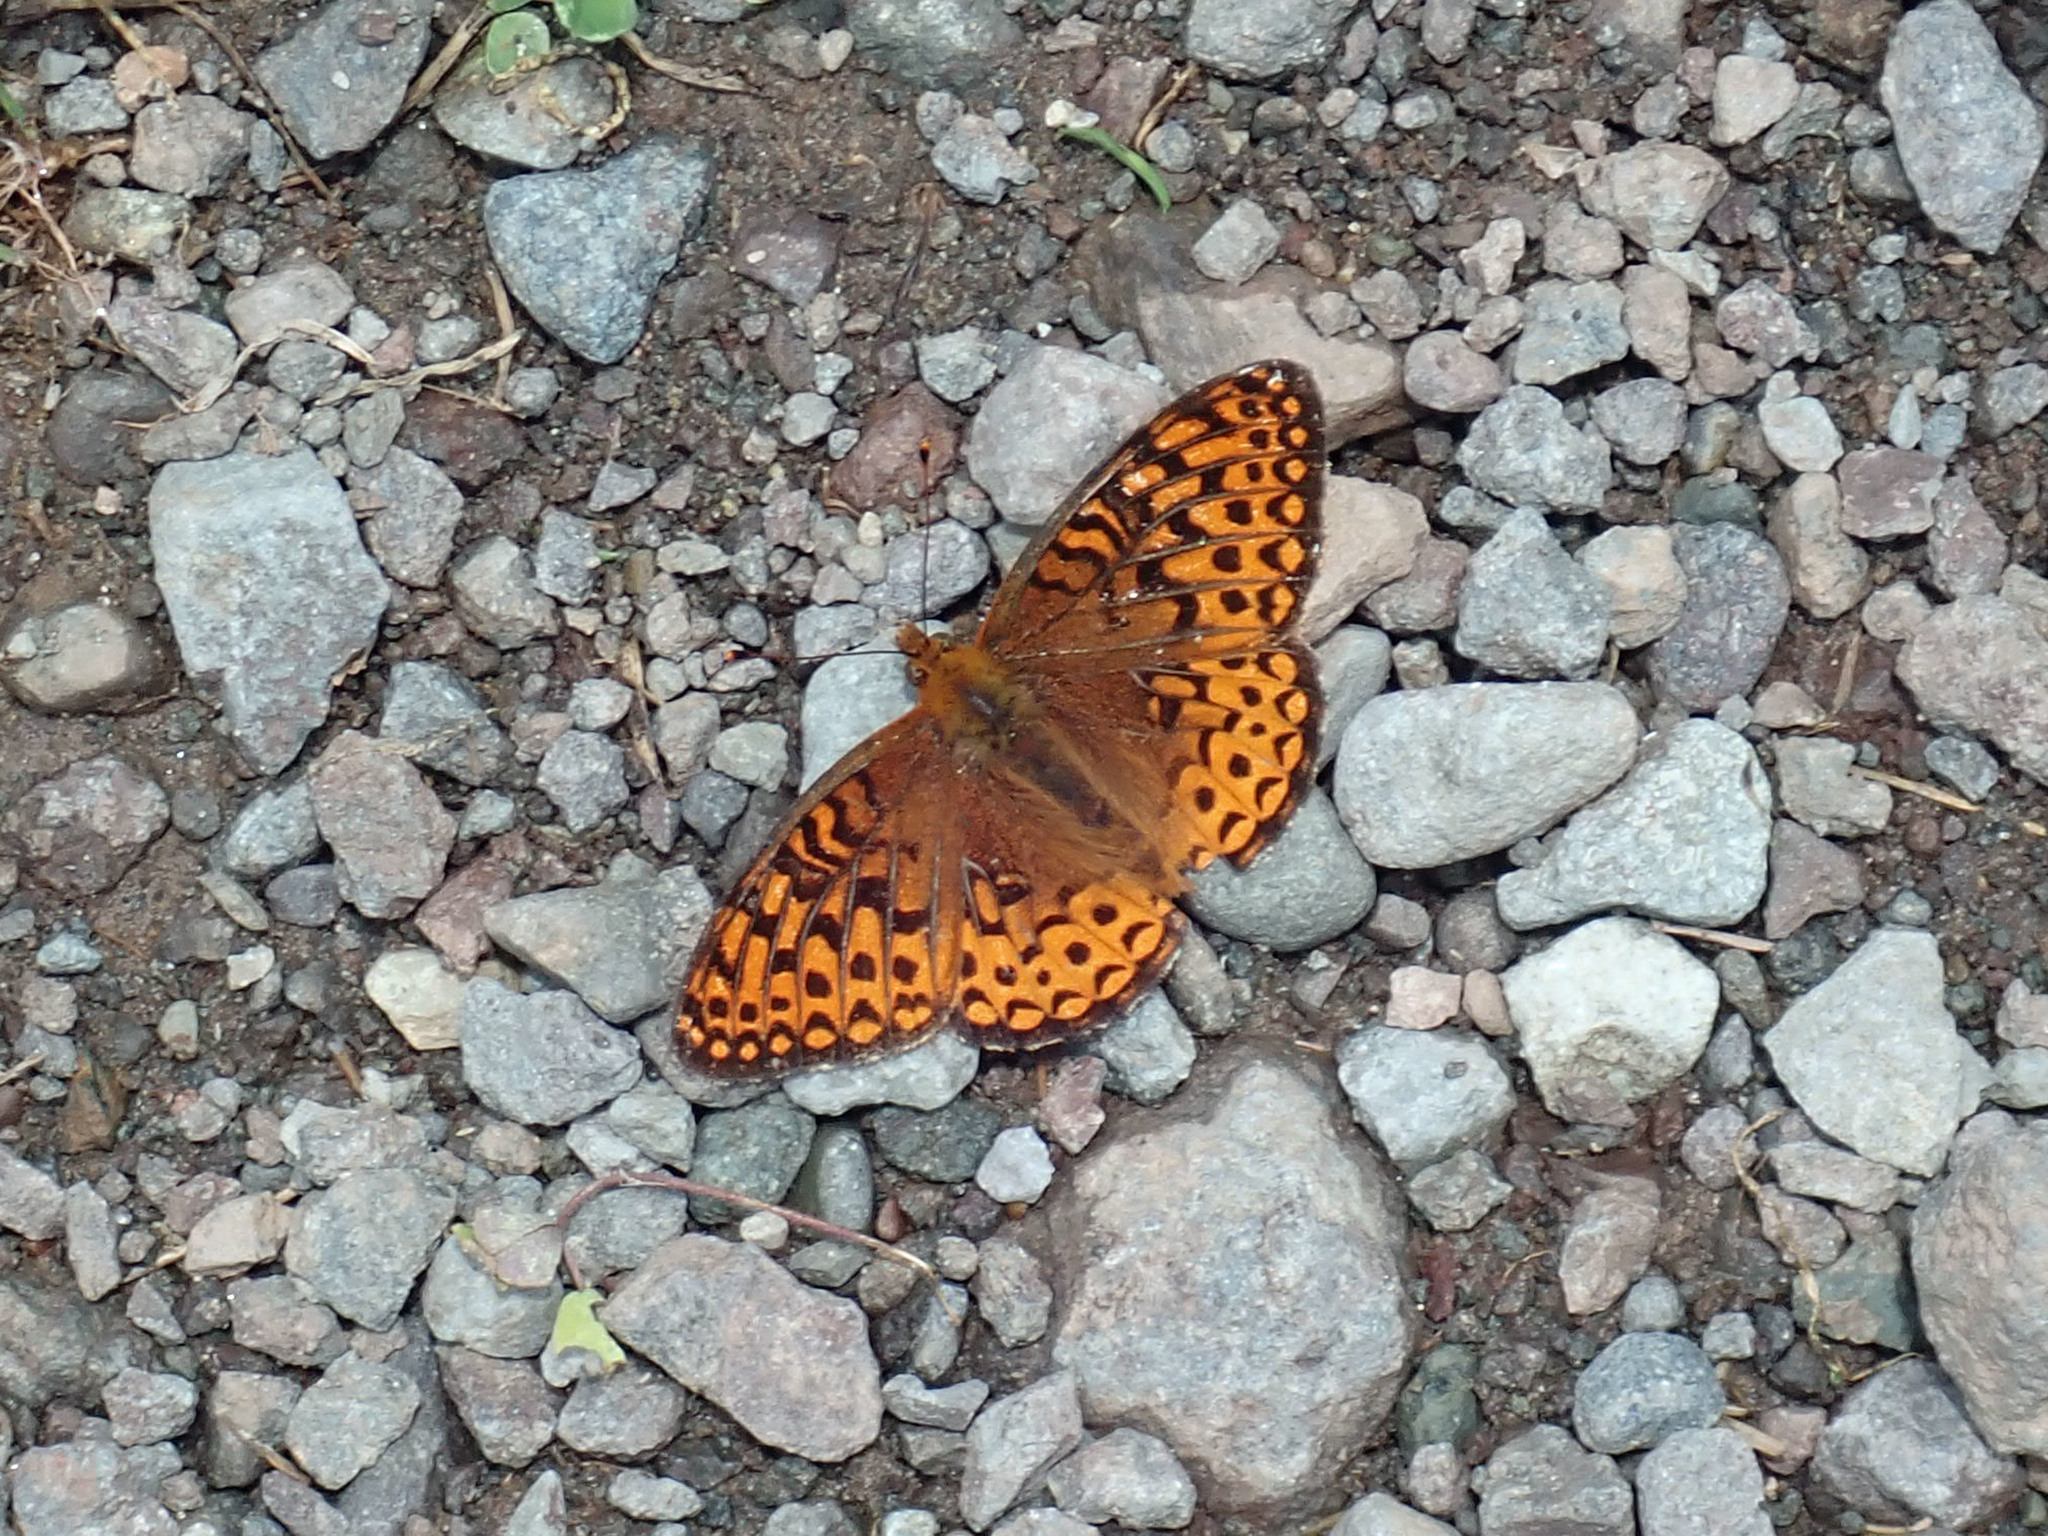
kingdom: Animalia
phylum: Arthropoda
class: Insecta
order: Lepidoptera
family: Nymphalidae
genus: Speyeria
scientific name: Speyeria atlantis
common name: Atlantis fritillary
